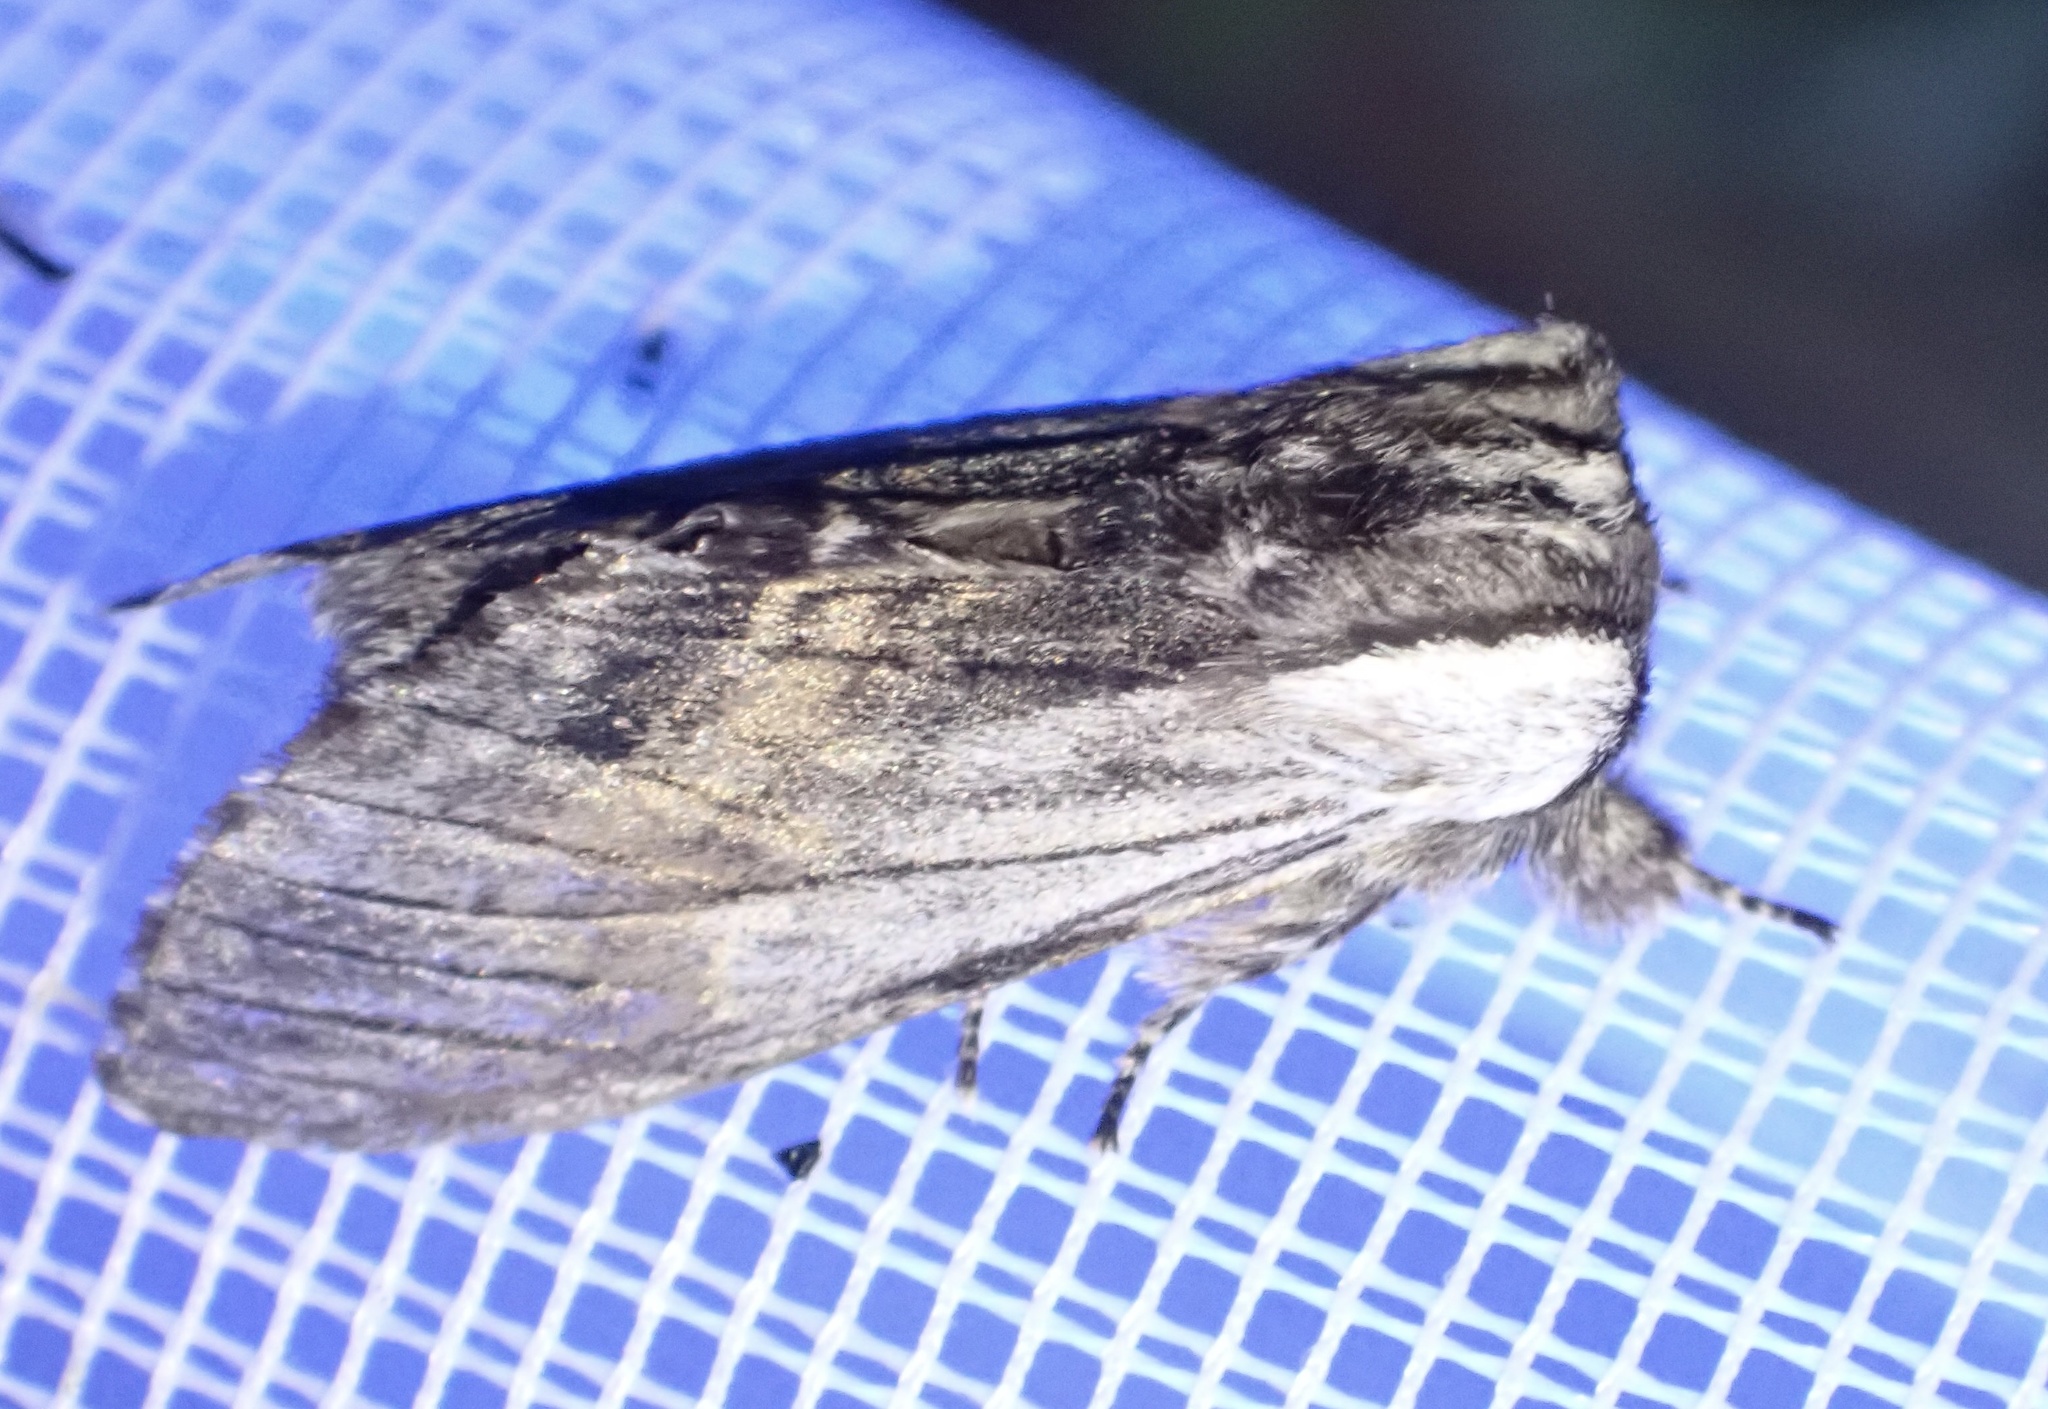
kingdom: Animalia
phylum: Arthropoda
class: Insecta
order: Lepidoptera
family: Notodontidae
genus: Harpyia
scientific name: Harpyia milhauseri
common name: Tawny prominent
